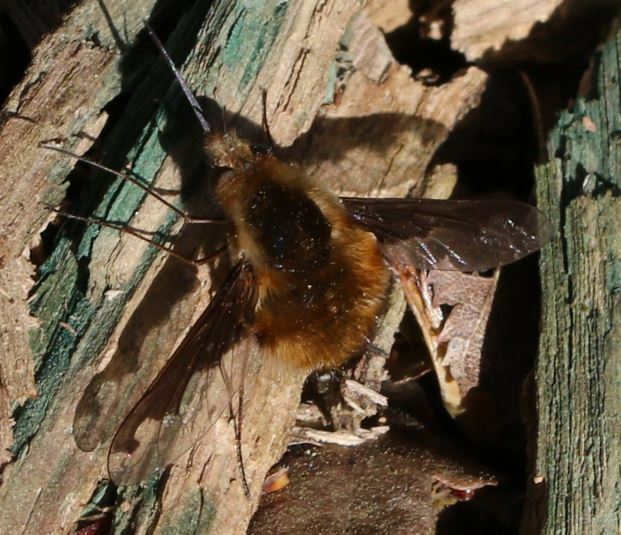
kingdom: Animalia
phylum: Arthropoda
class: Insecta
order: Diptera
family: Bombyliidae
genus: Bombylius
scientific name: Bombylius major
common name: Bee fly
